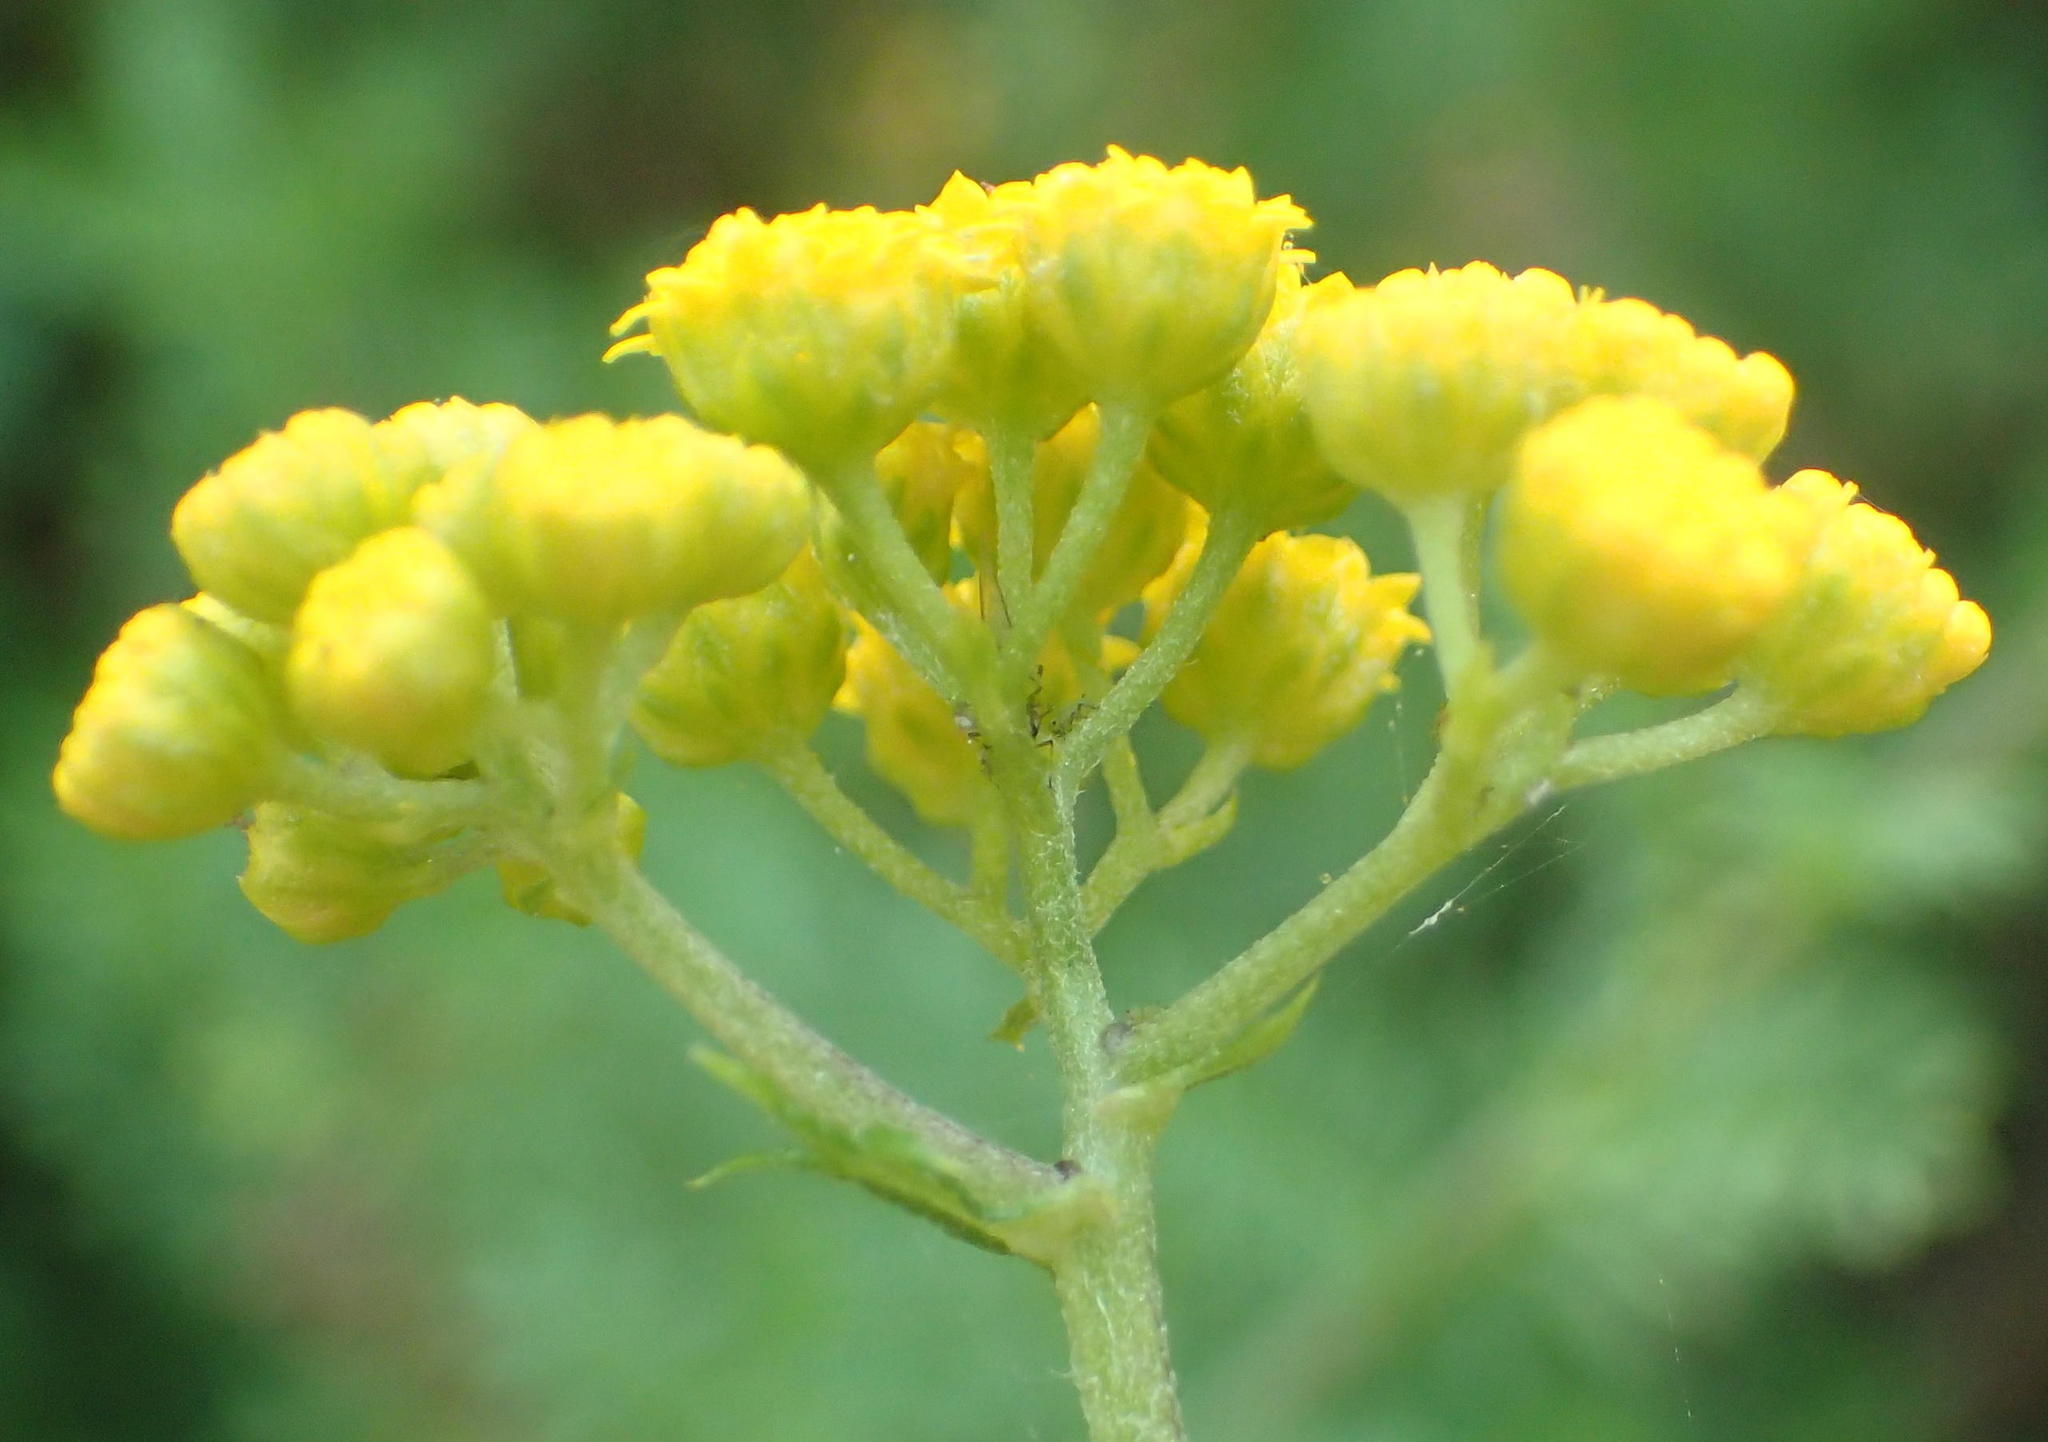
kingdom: Plantae
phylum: Tracheophyta
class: Magnoliopsida
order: Asterales
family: Asteraceae
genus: Hippia
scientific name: Hippia frutescens
